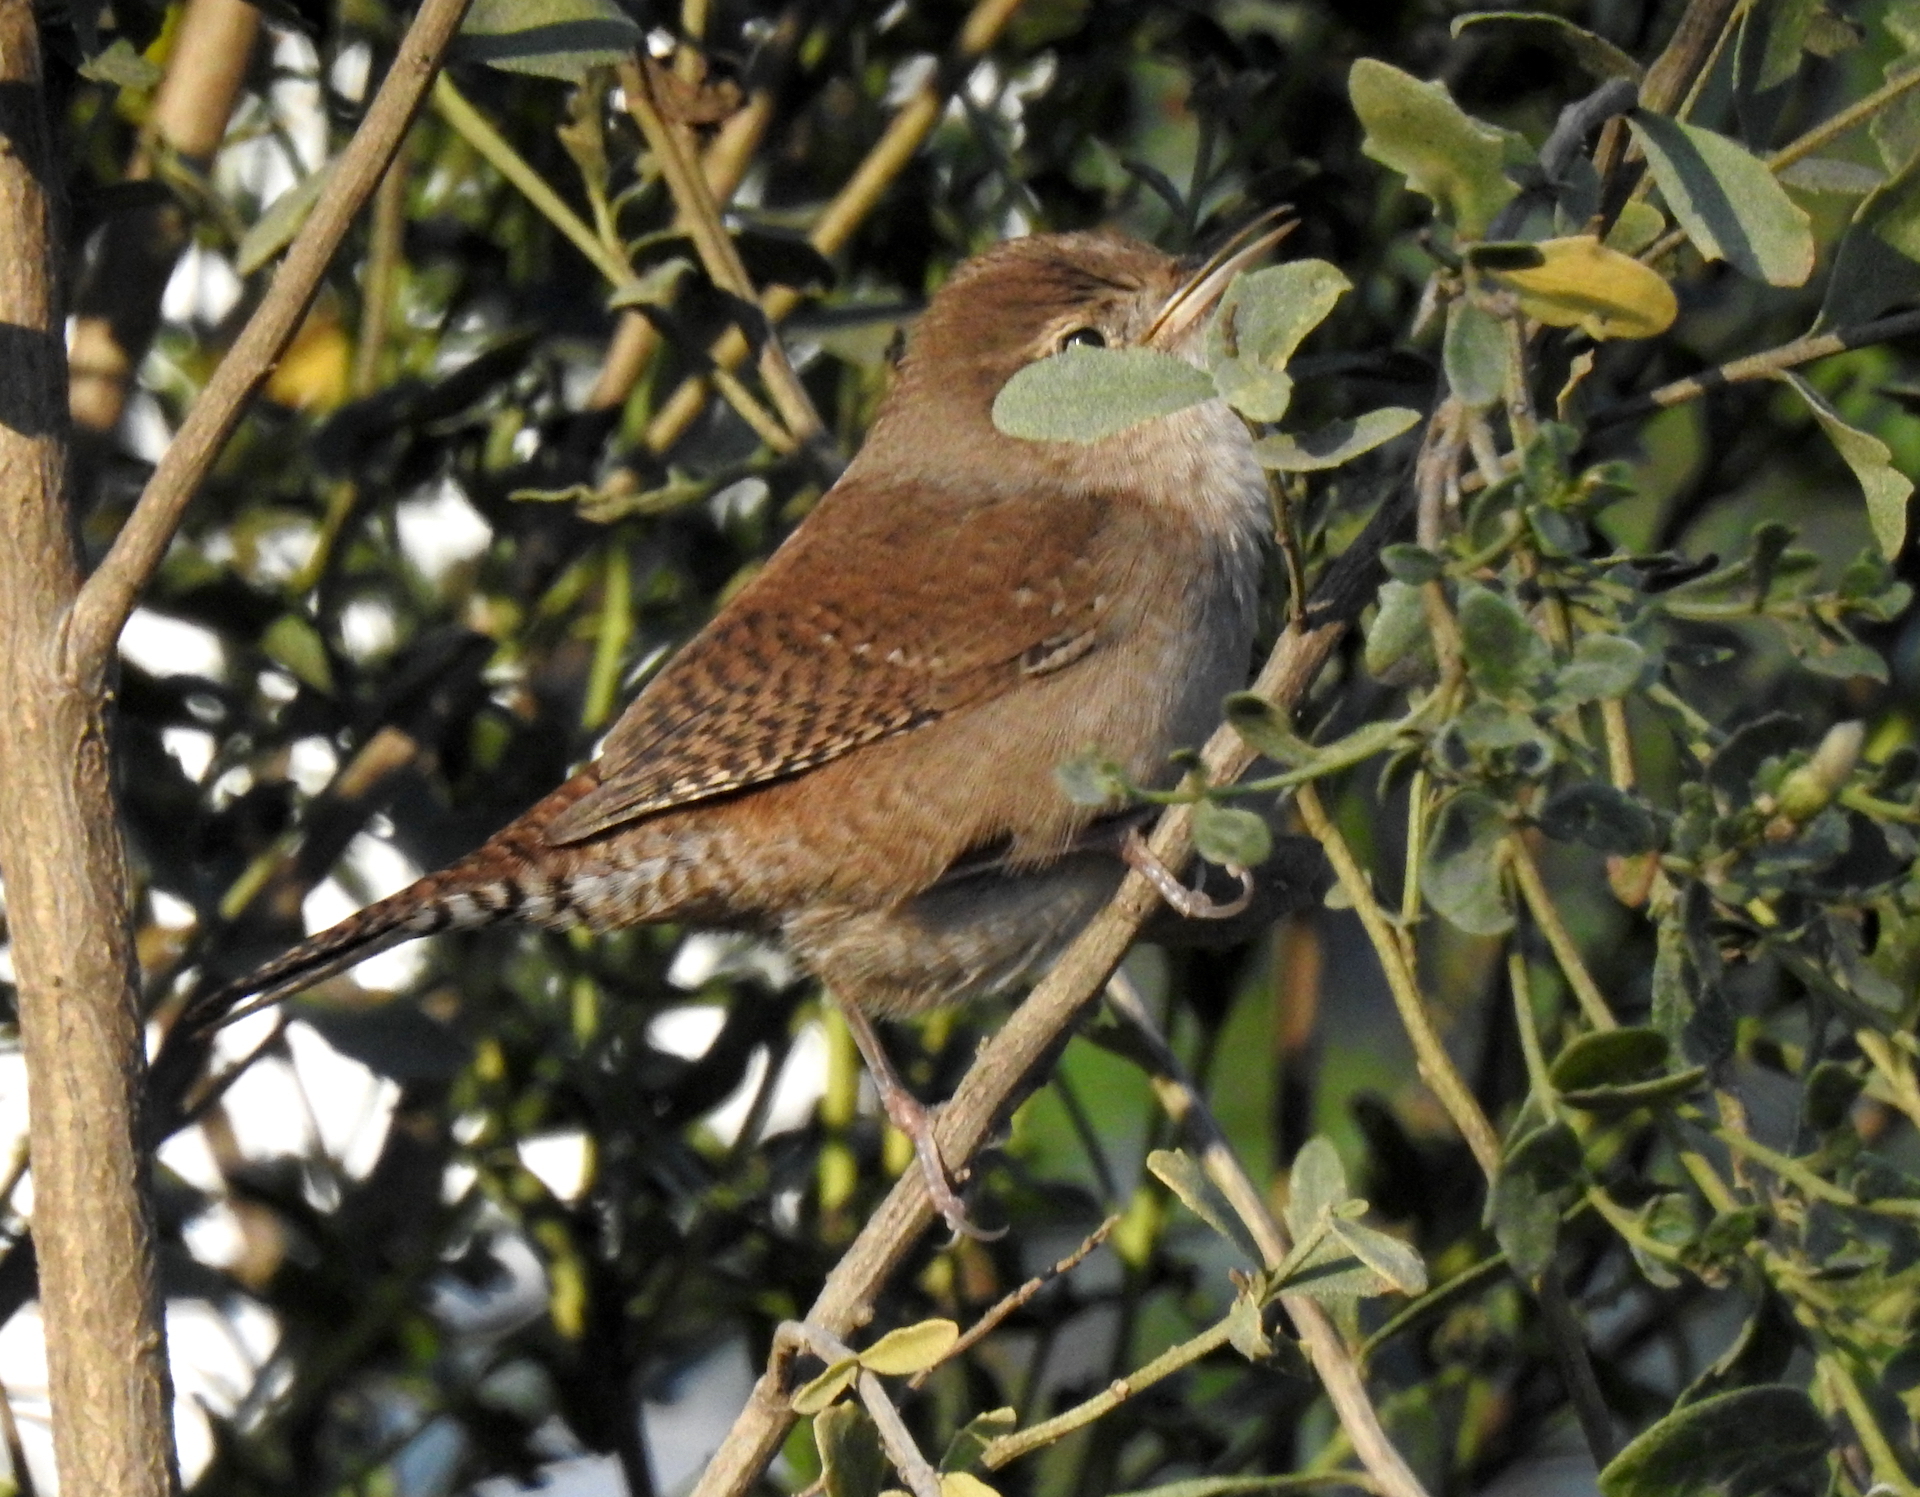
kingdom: Animalia
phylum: Chordata
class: Aves
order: Passeriformes
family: Troglodytidae
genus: Troglodytes
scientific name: Troglodytes aedon
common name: House wren
